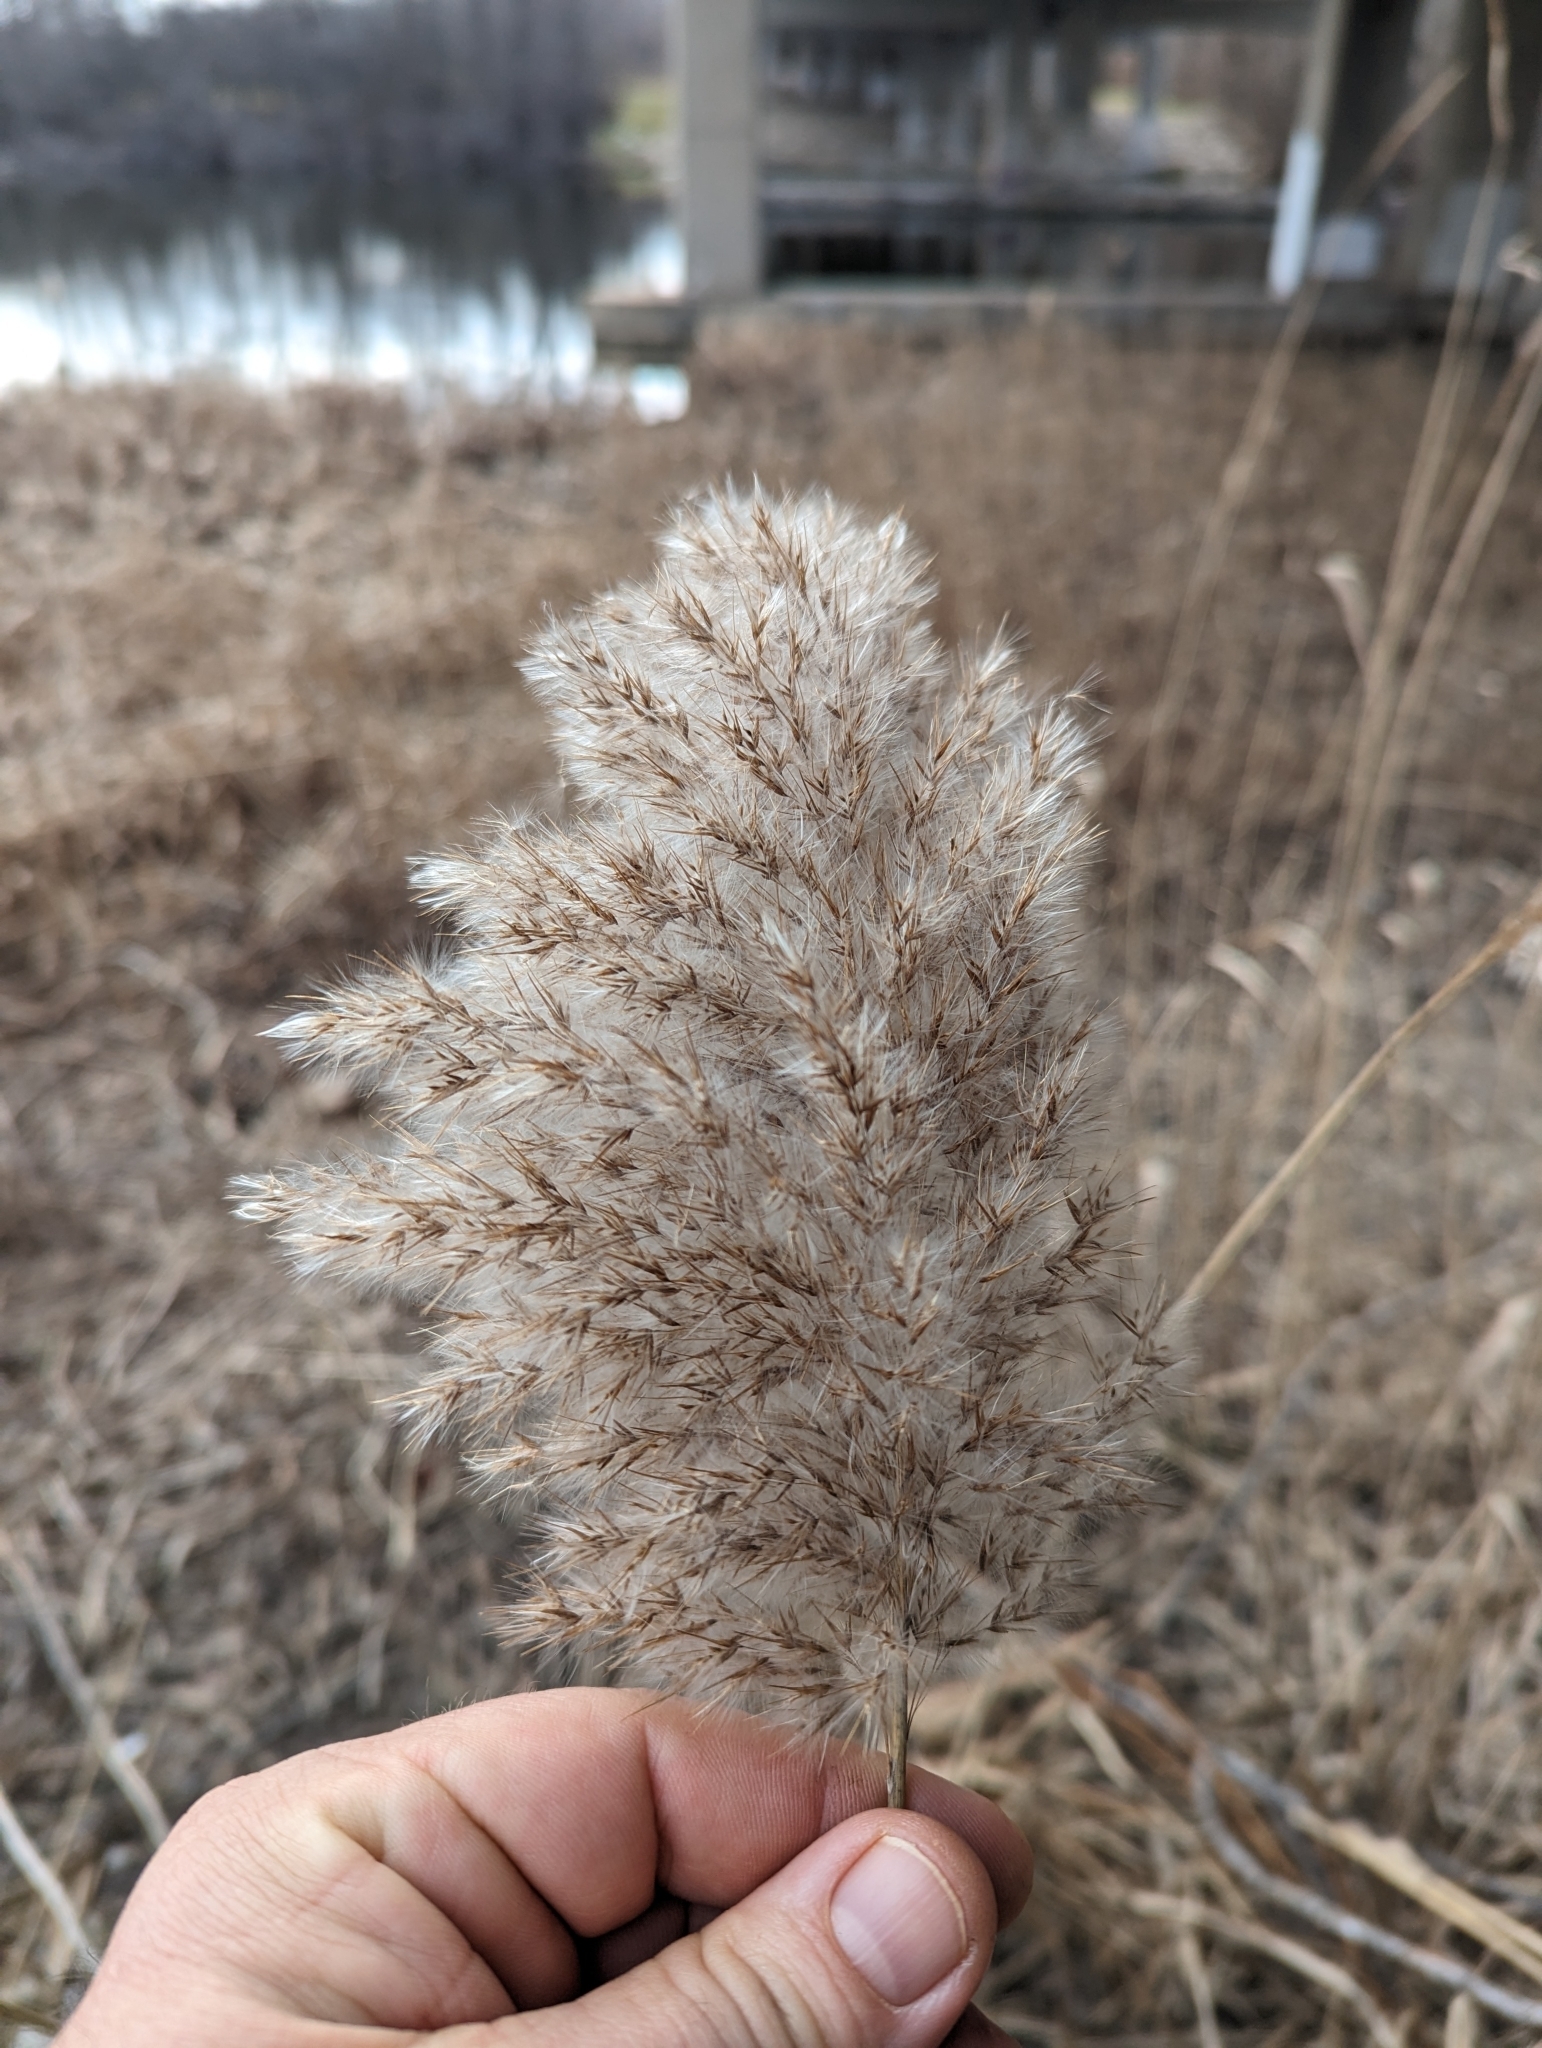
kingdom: Plantae
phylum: Tracheophyta
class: Liliopsida
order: Poales
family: Poaceae
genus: Phragmites
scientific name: Phragmites australis
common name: Common reed
